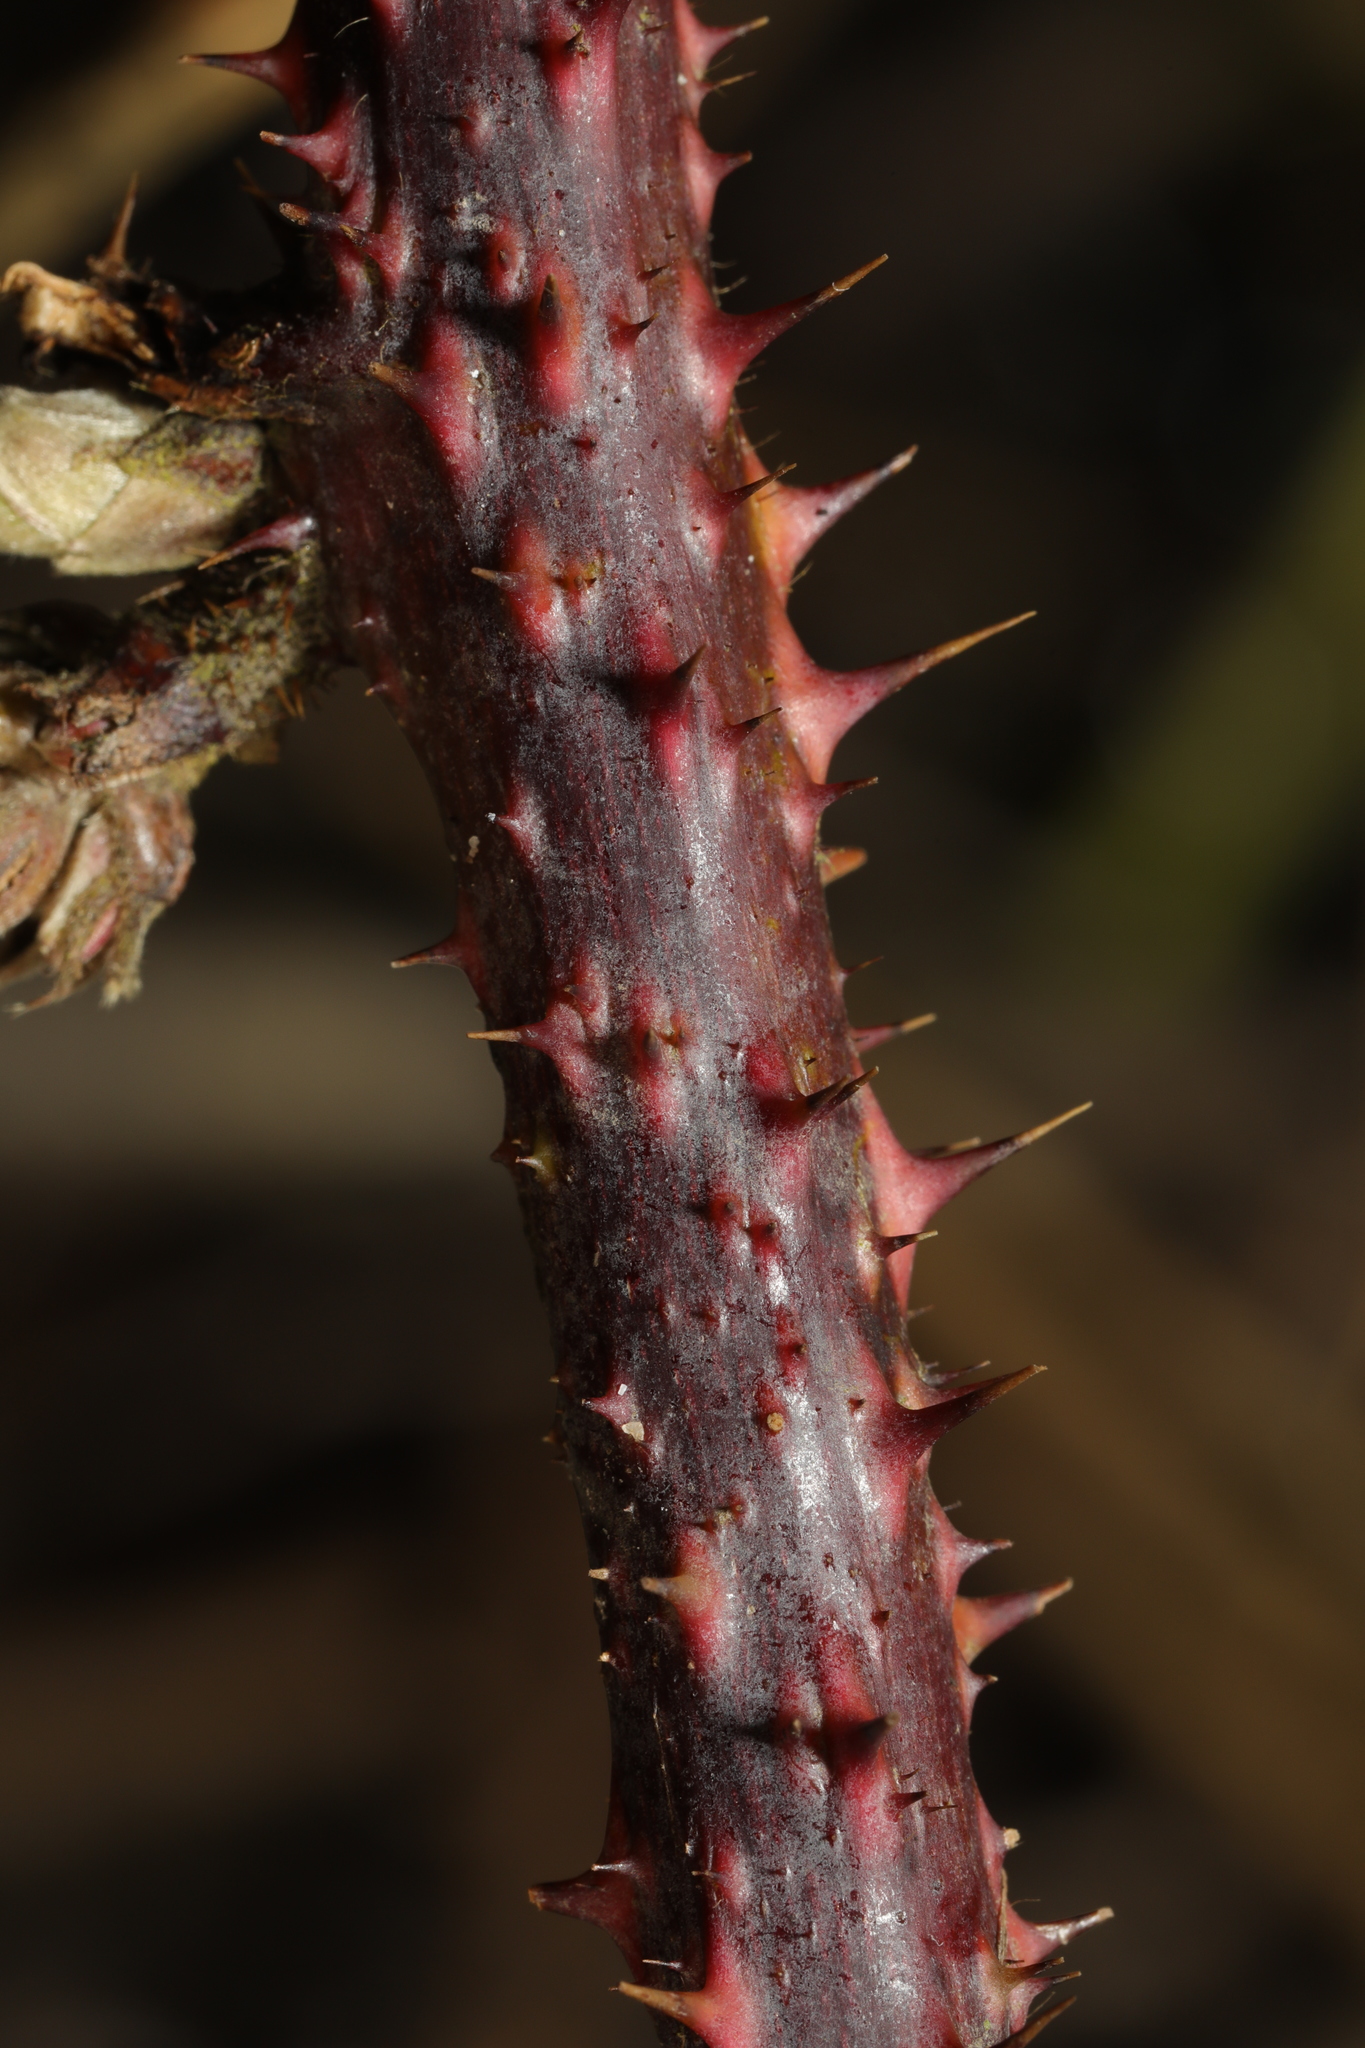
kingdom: Plantae
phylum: Tracheophyta
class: Magnoliopsida
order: Rosales
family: Rosaceae
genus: Rubus
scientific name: Rubus horrefactus
